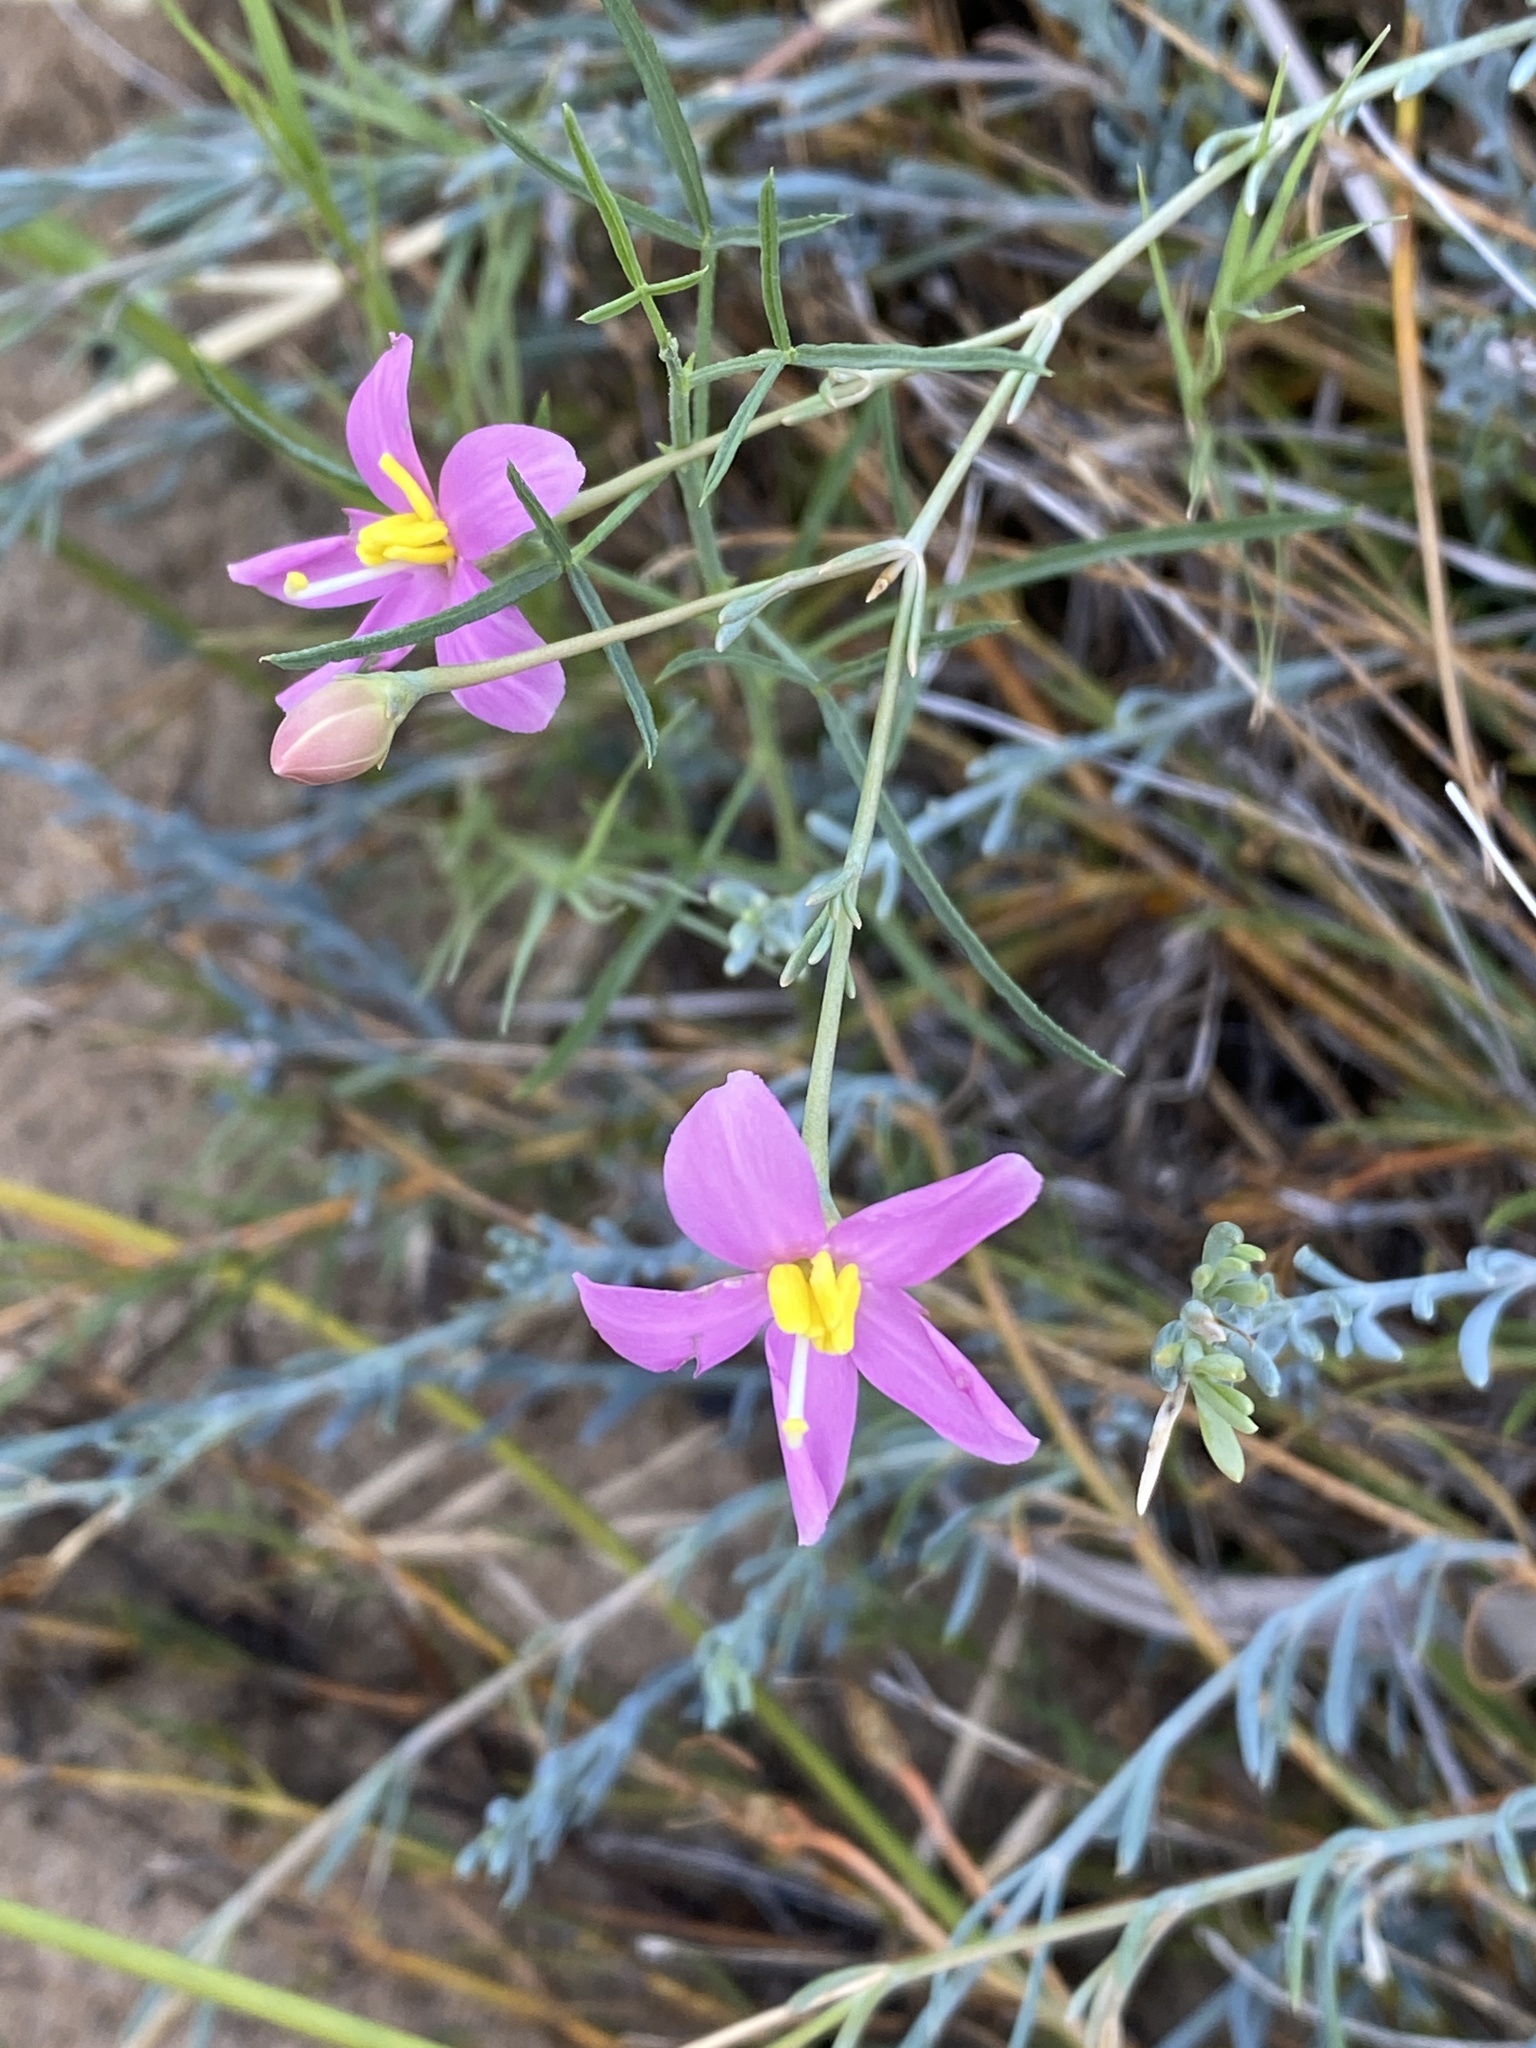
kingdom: Plantae
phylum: Tracheophyta
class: Magnoliopsida
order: Gentianales
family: Gentianaceae
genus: Chironia
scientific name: Chironia linoides
